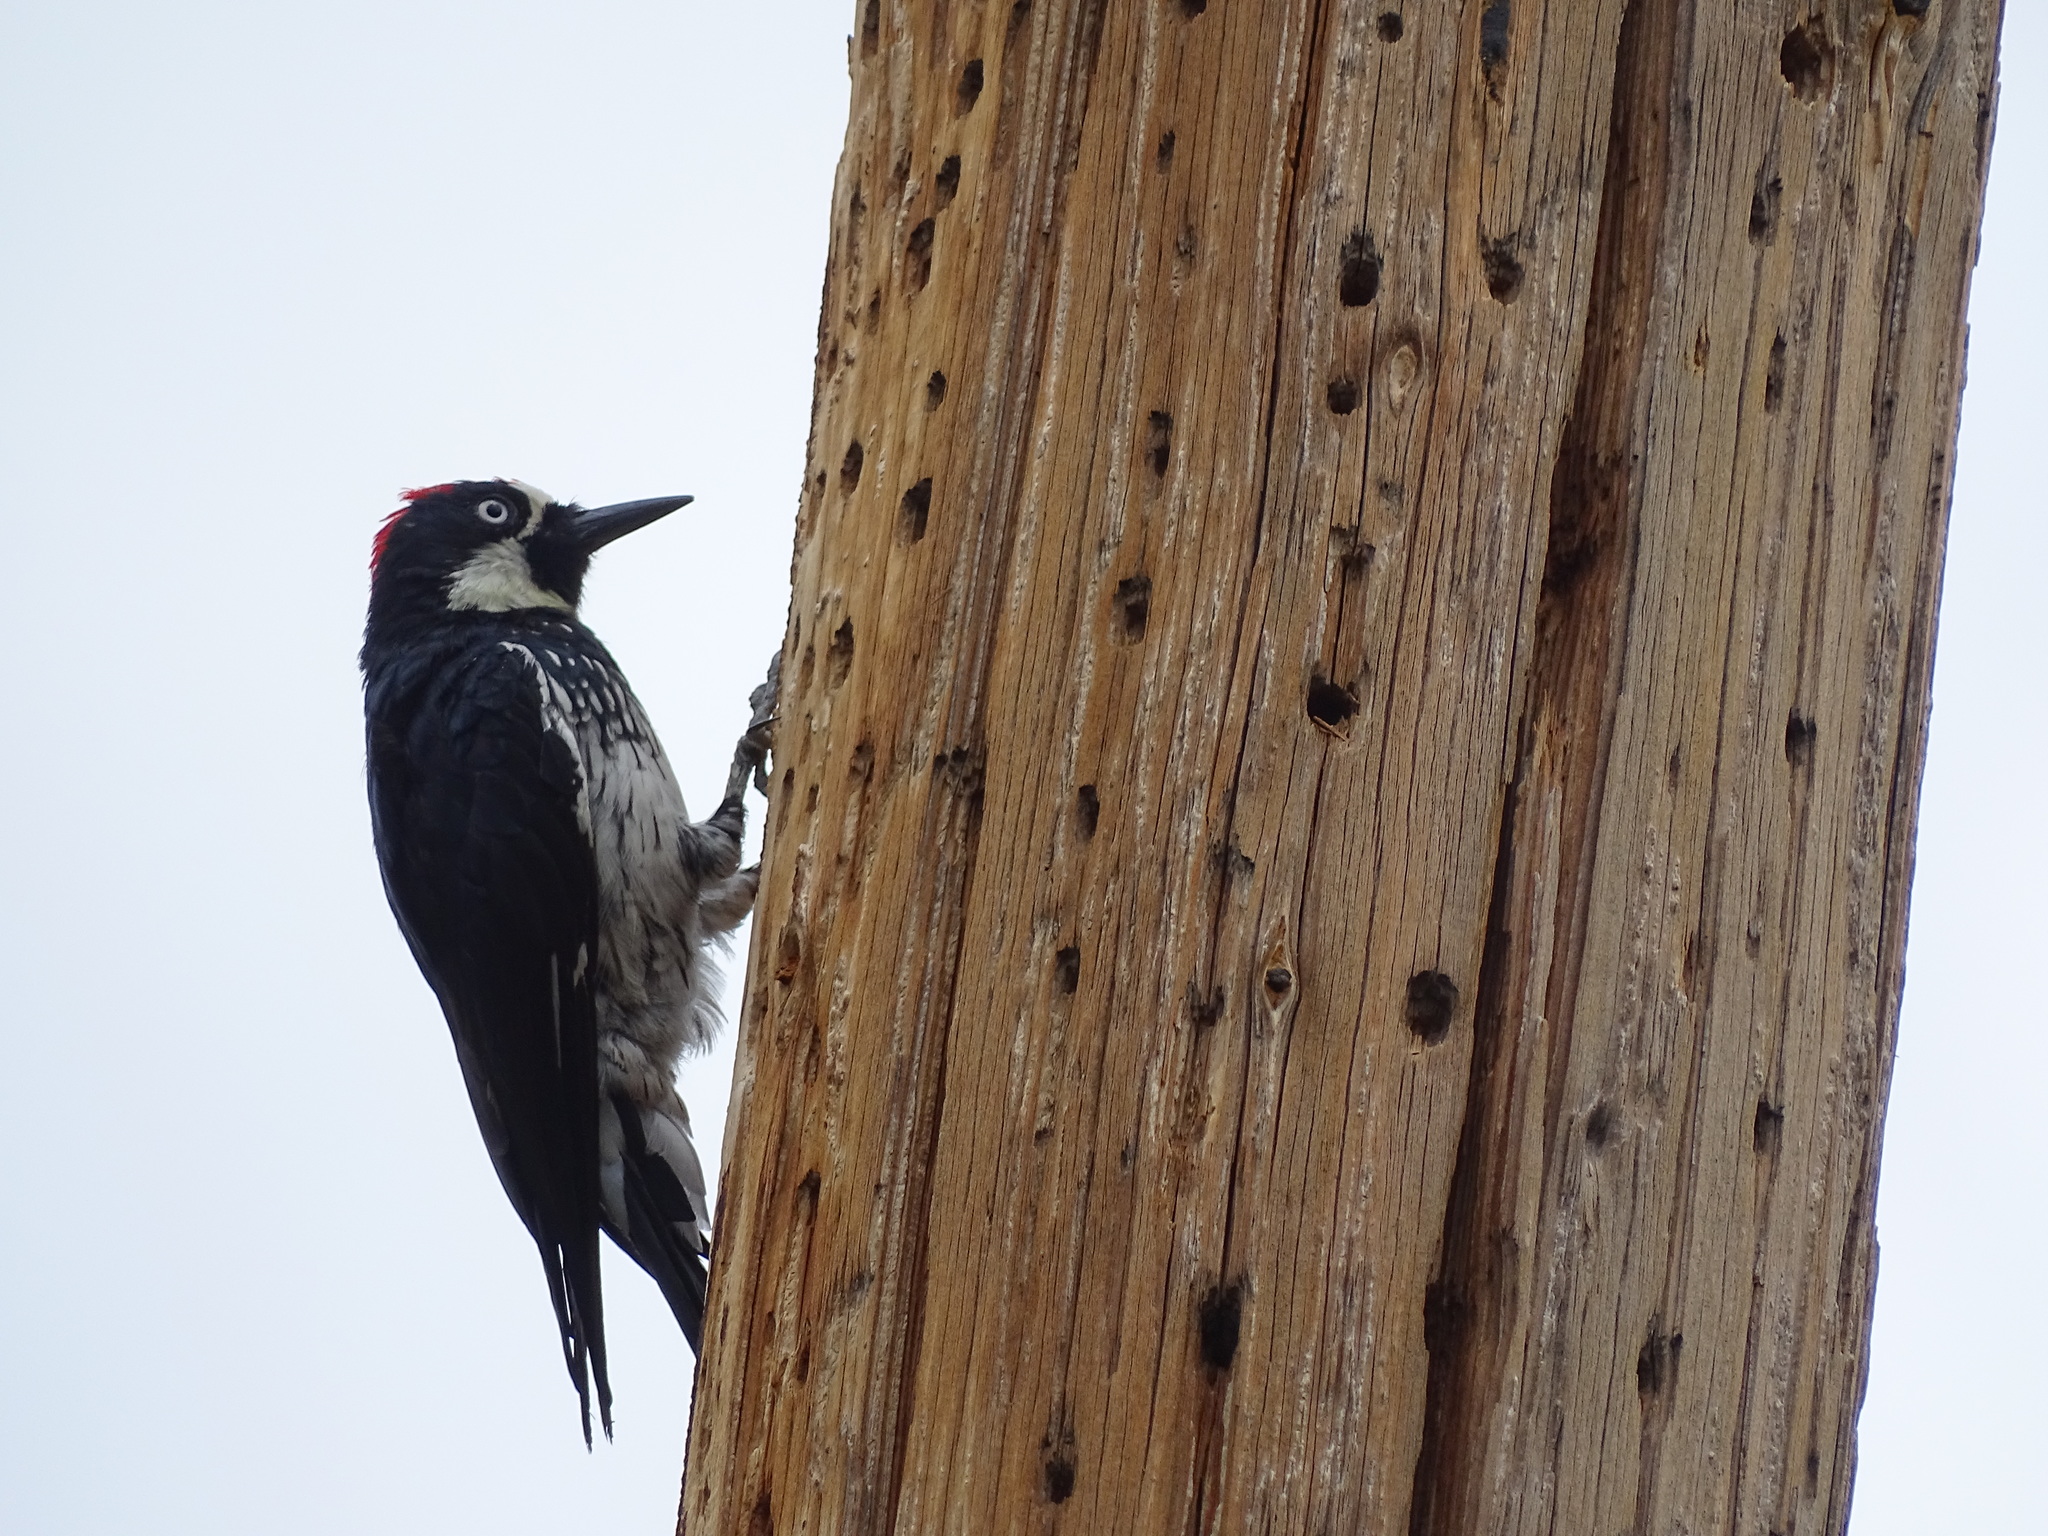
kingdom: Animalia
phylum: Chordata
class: Aves
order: Piciformes
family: Picidae
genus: Melanerpes
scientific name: Melanerpes formicivorus
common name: Acorn woodpecker
